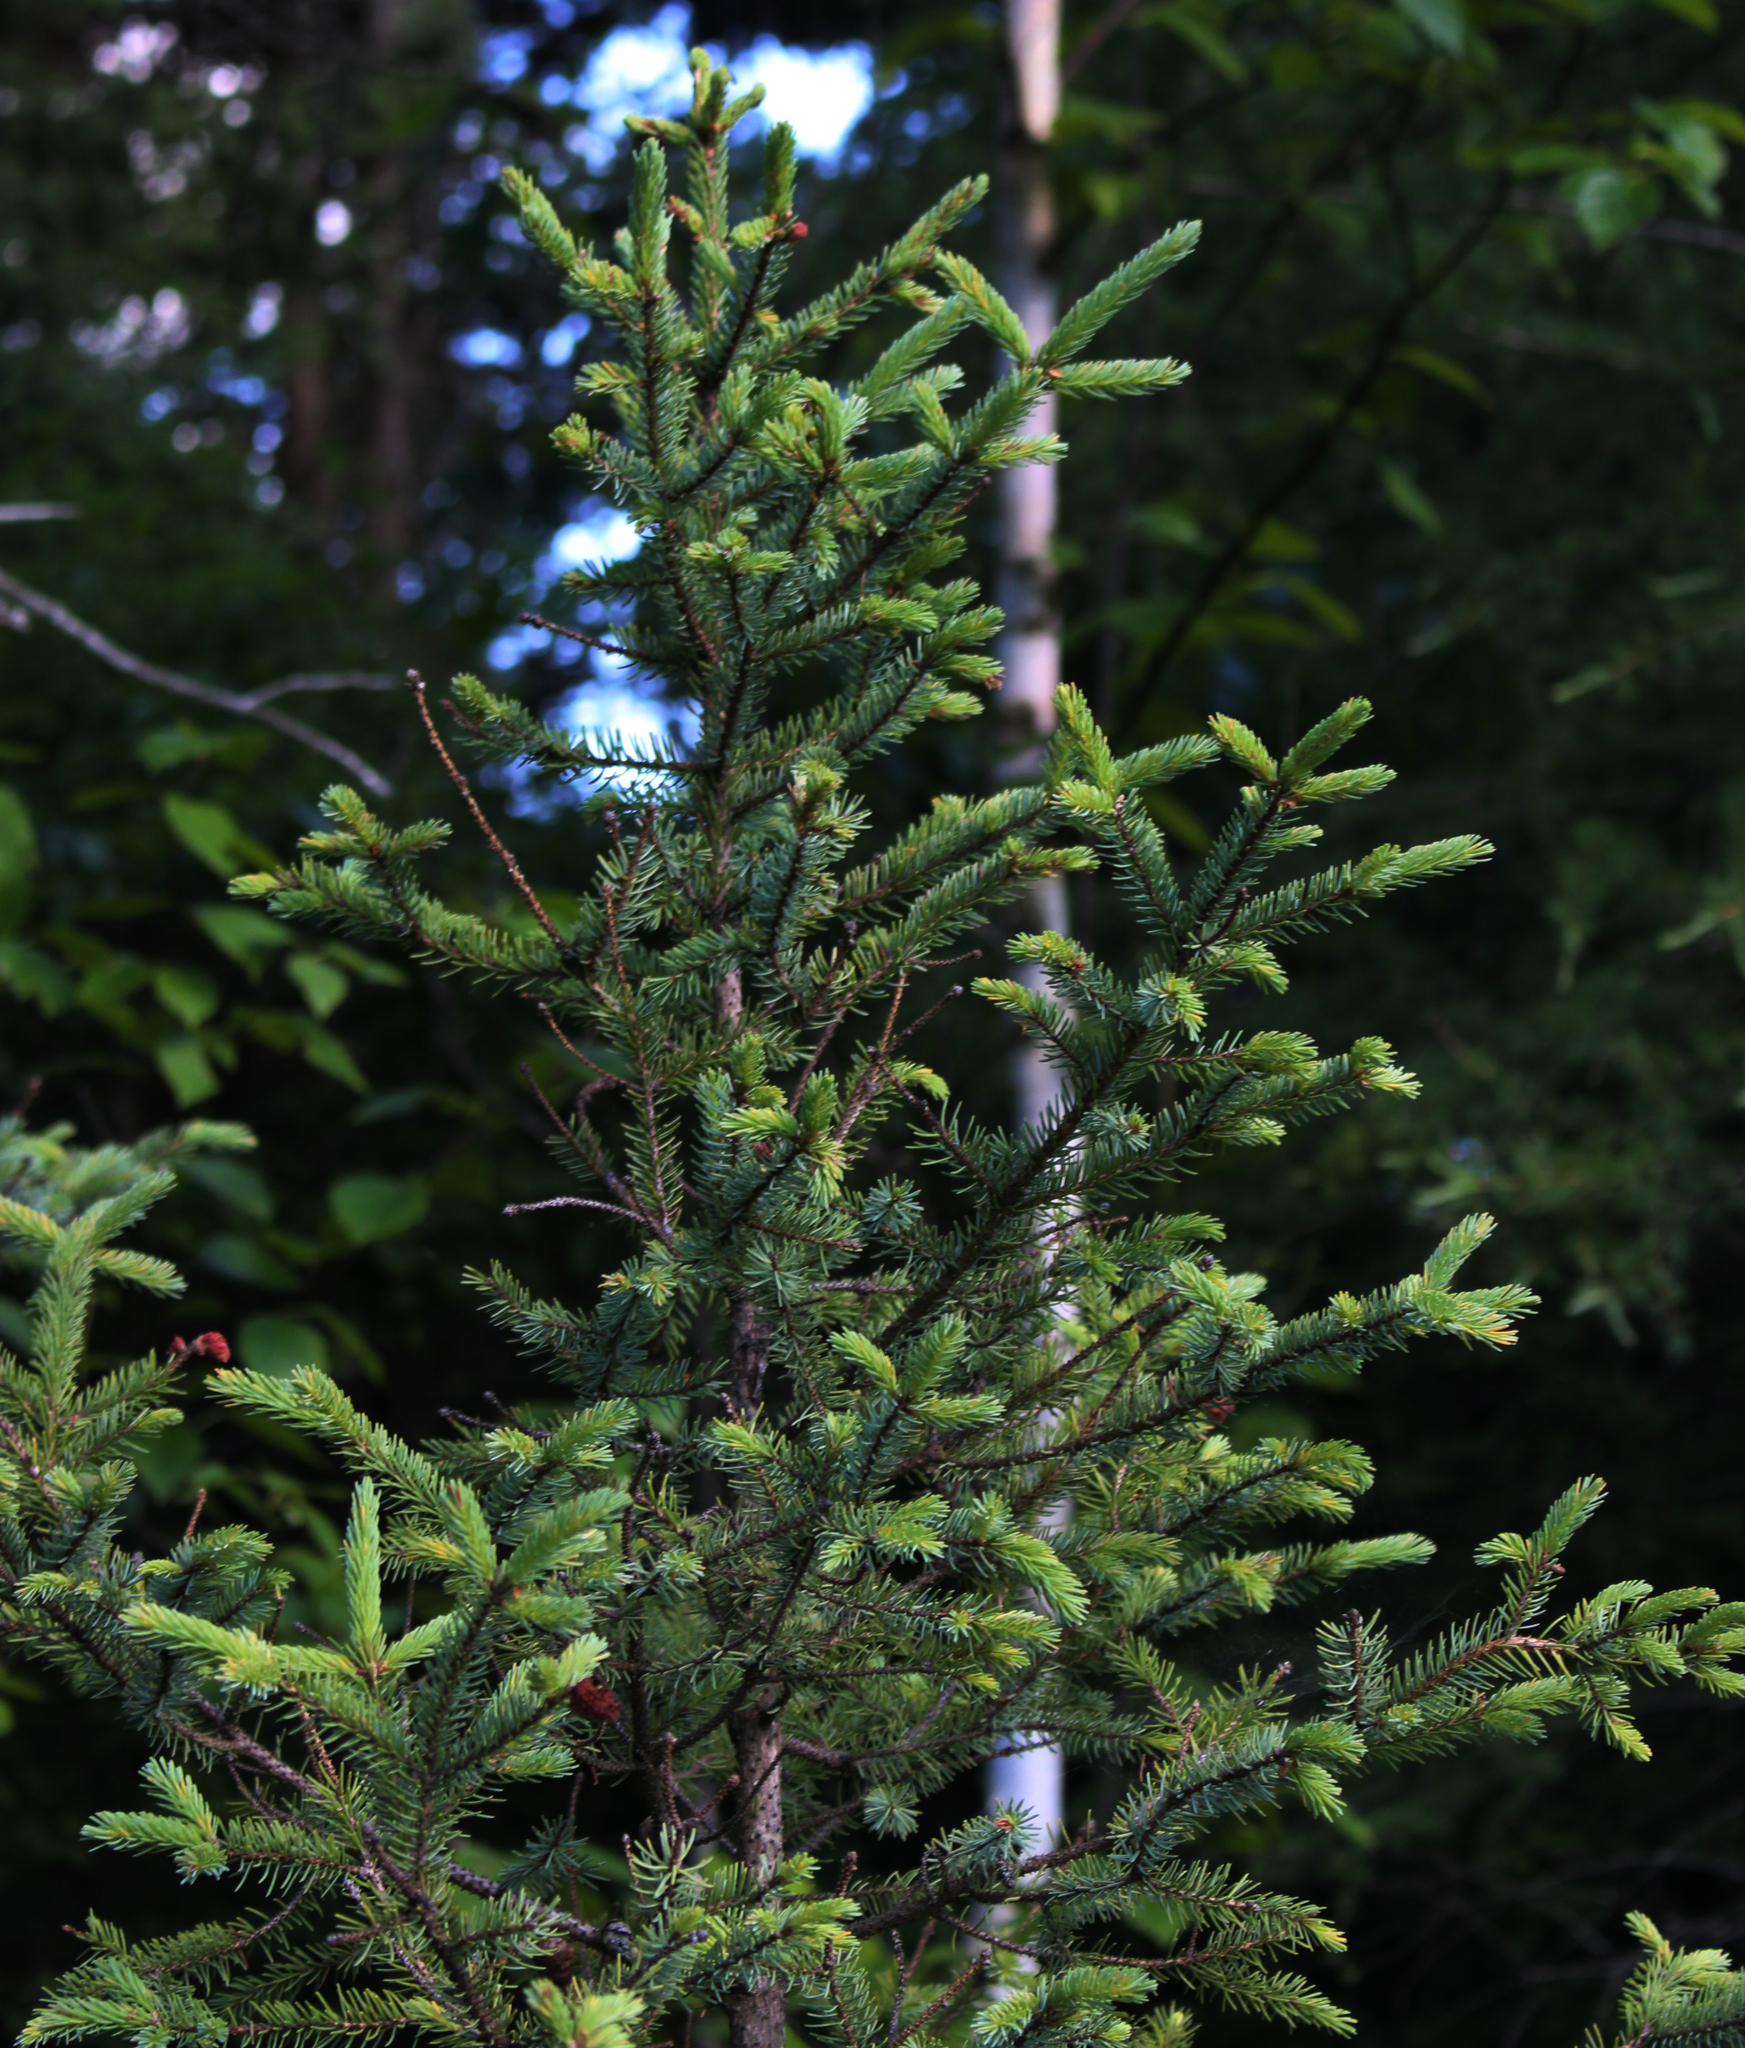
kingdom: Plantae
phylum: Tracheophyta
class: Pinopsida
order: Pinales
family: Pinaceae
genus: Picea
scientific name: Picea mariana
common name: Black spruce
